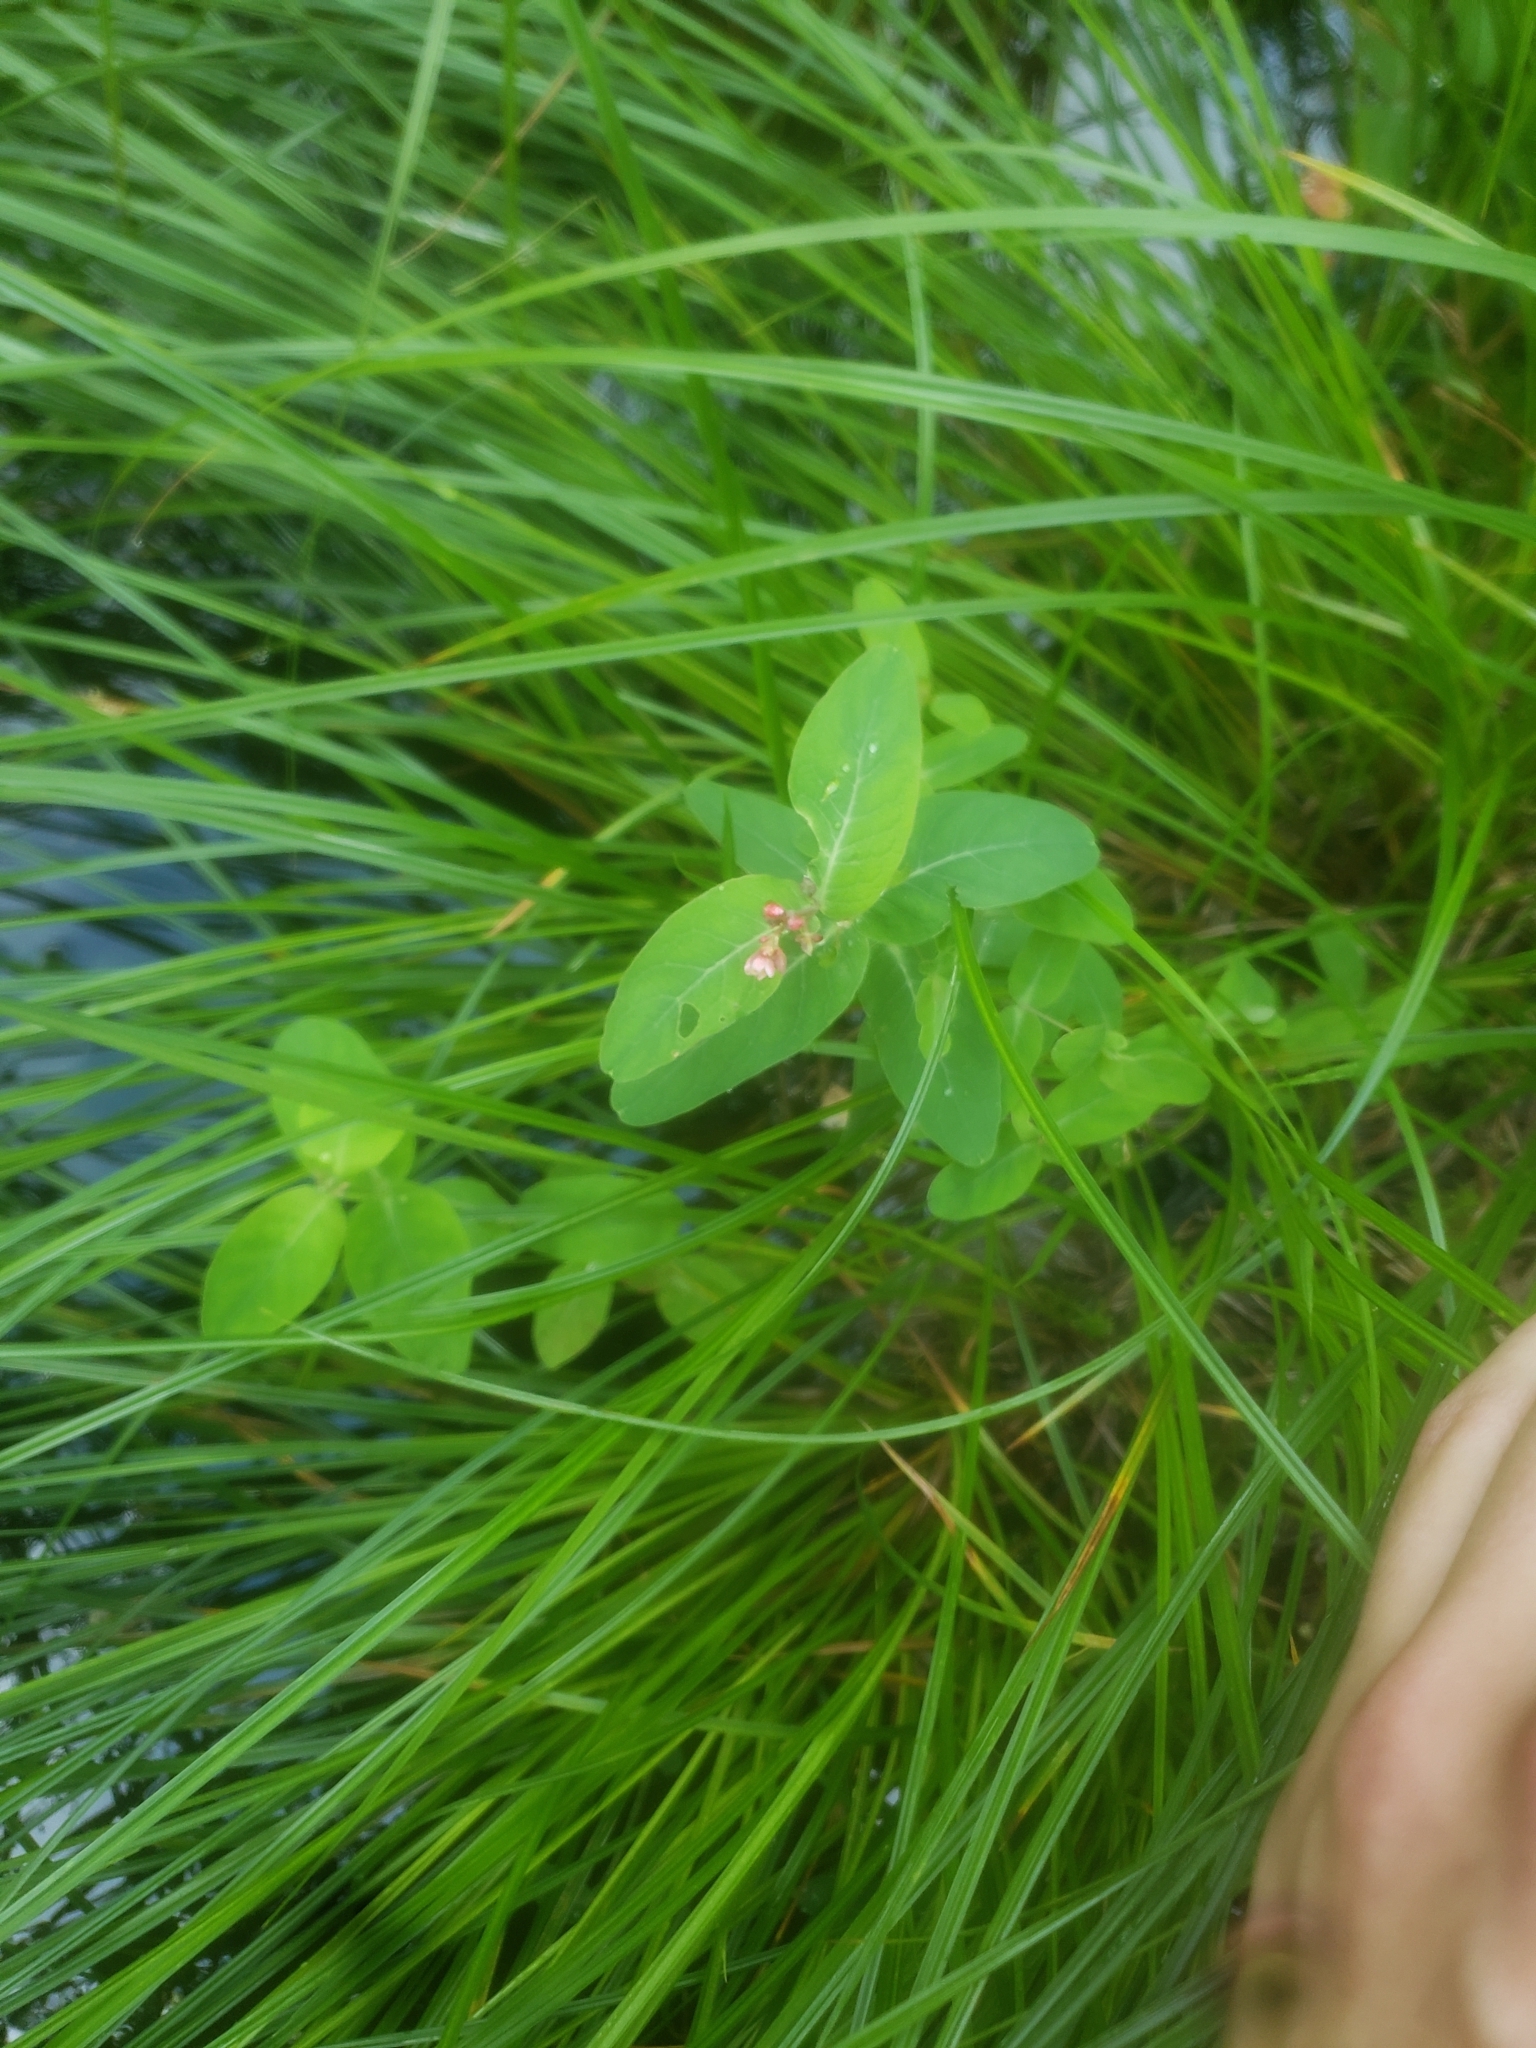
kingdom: Plantae
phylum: Tracheophyta
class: Magnoliopsida
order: Malpighiales
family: Hypericaceae
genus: Triadenum
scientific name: Triadenum fraseri
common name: Fraser's marsh st. johnswort
